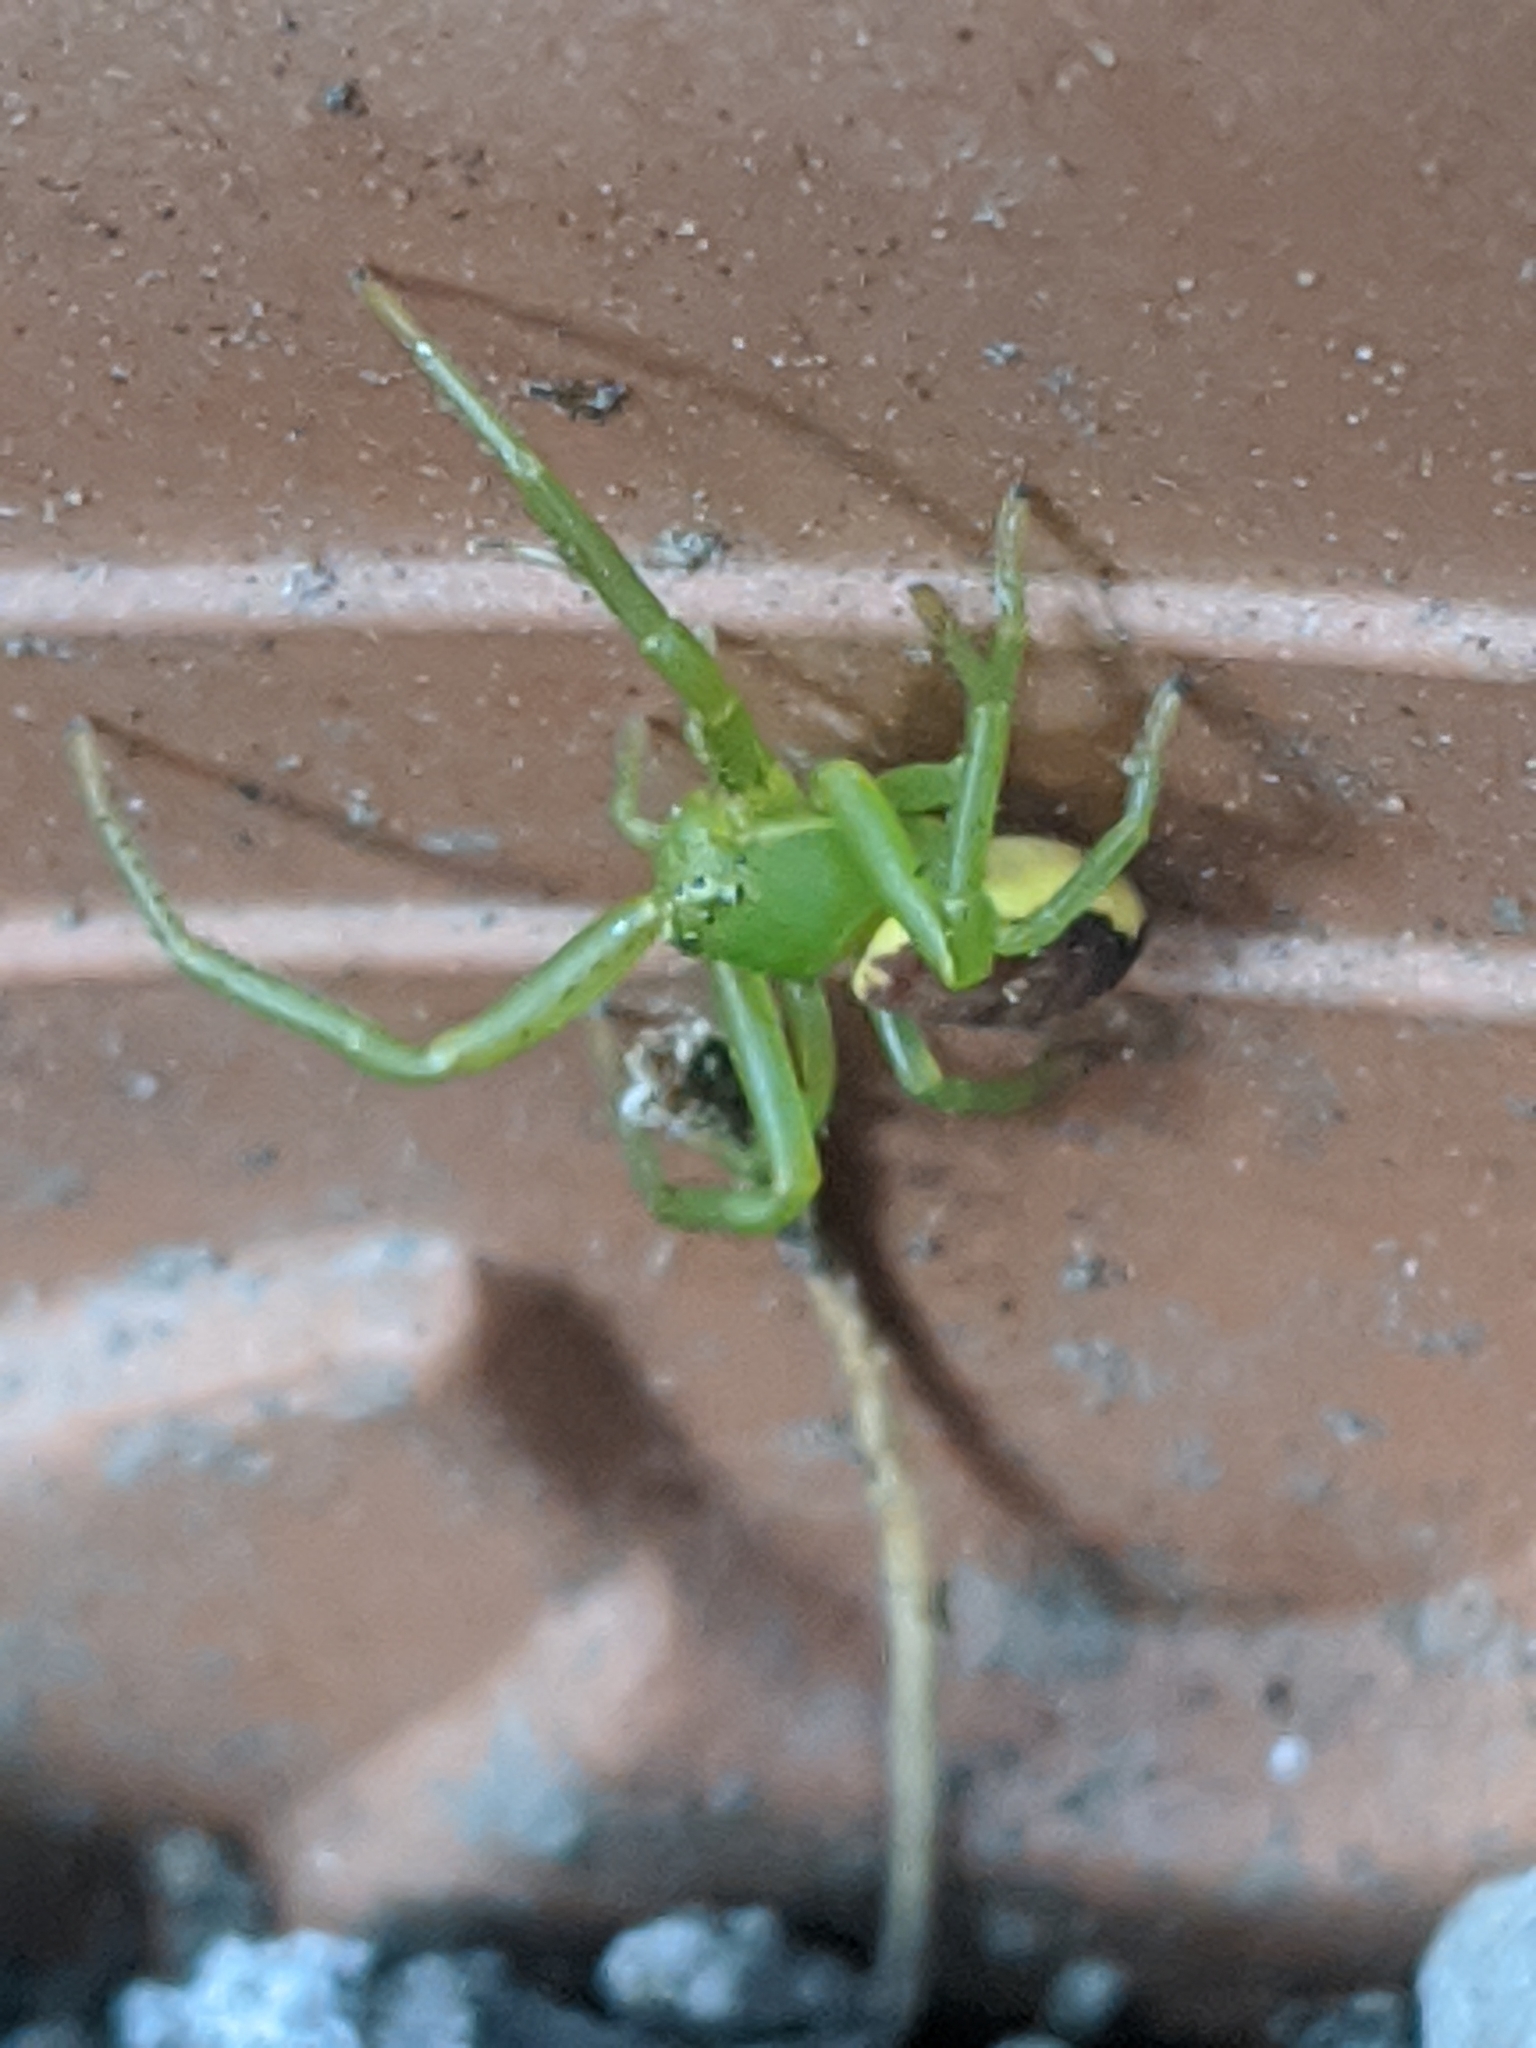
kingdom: Animalia
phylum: Arthropoda
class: Arachnida
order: Araneae
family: Thomisidae
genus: Diaea
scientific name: Diaea dorsata
